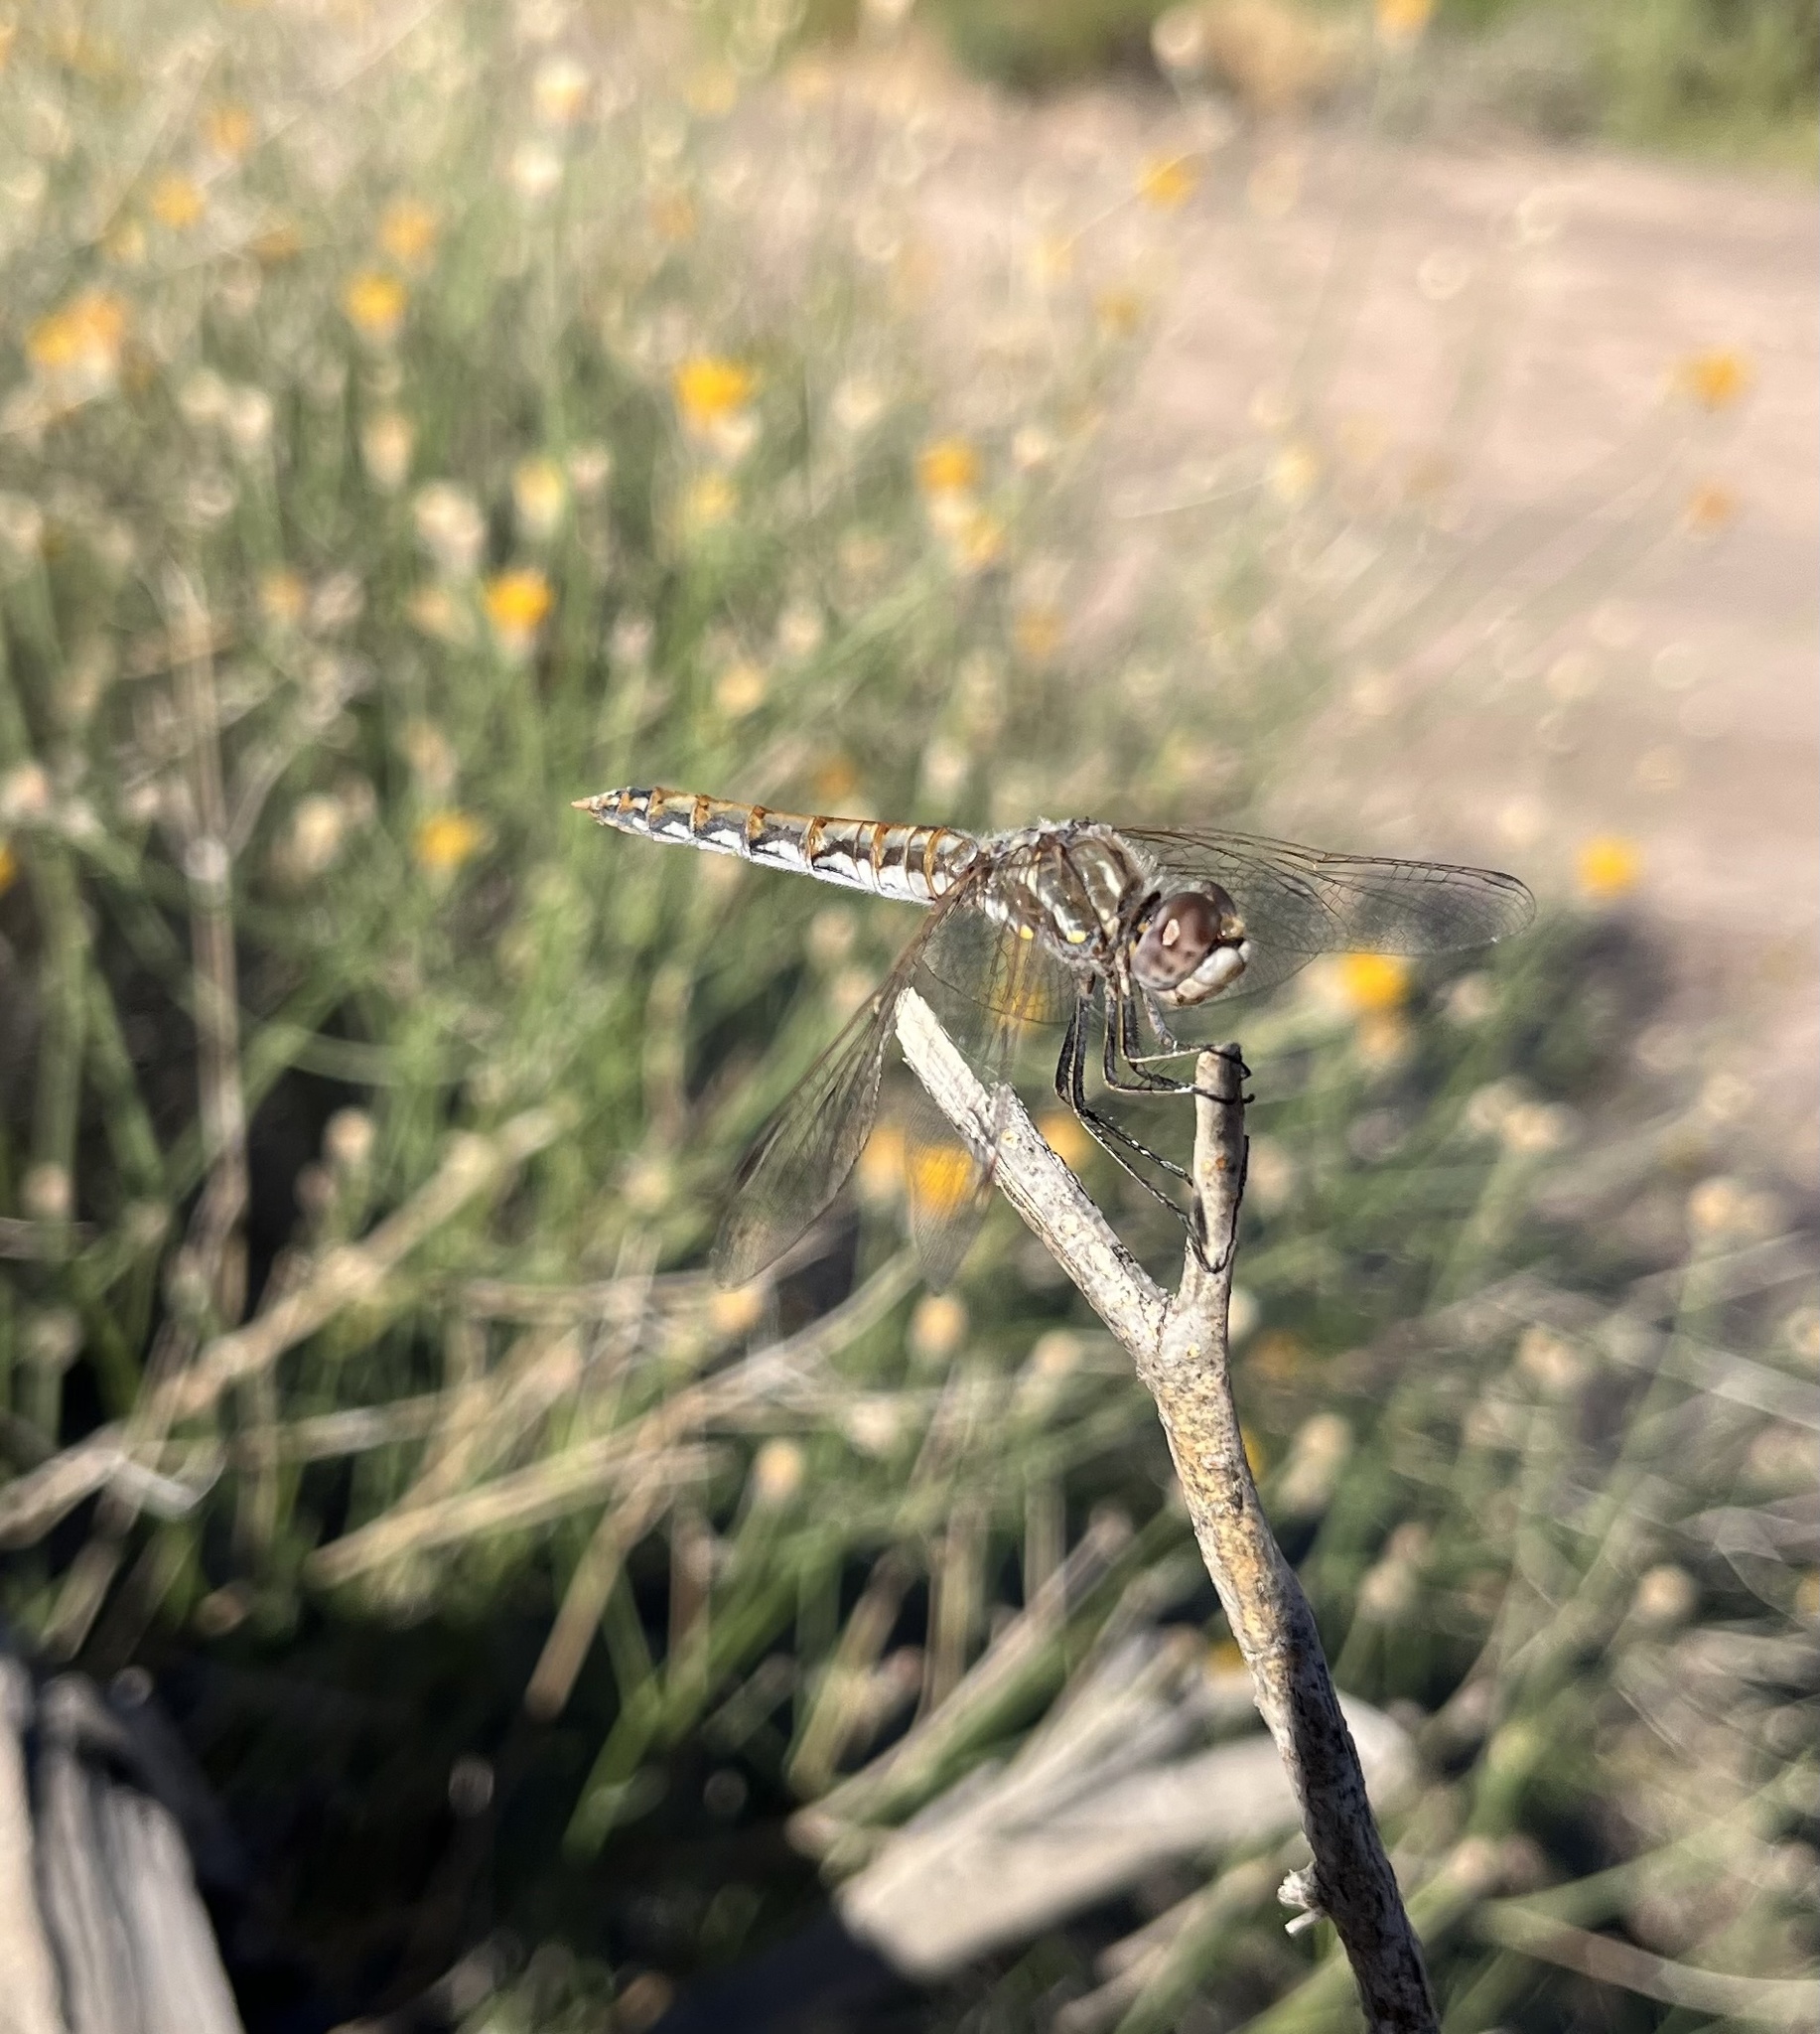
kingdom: Animalia
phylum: Arthropoda
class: Insecta
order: Odonata
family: Libellulidae
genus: Sympetrum
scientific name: Sympetrum corruptum
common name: Variegated meadowhawk
